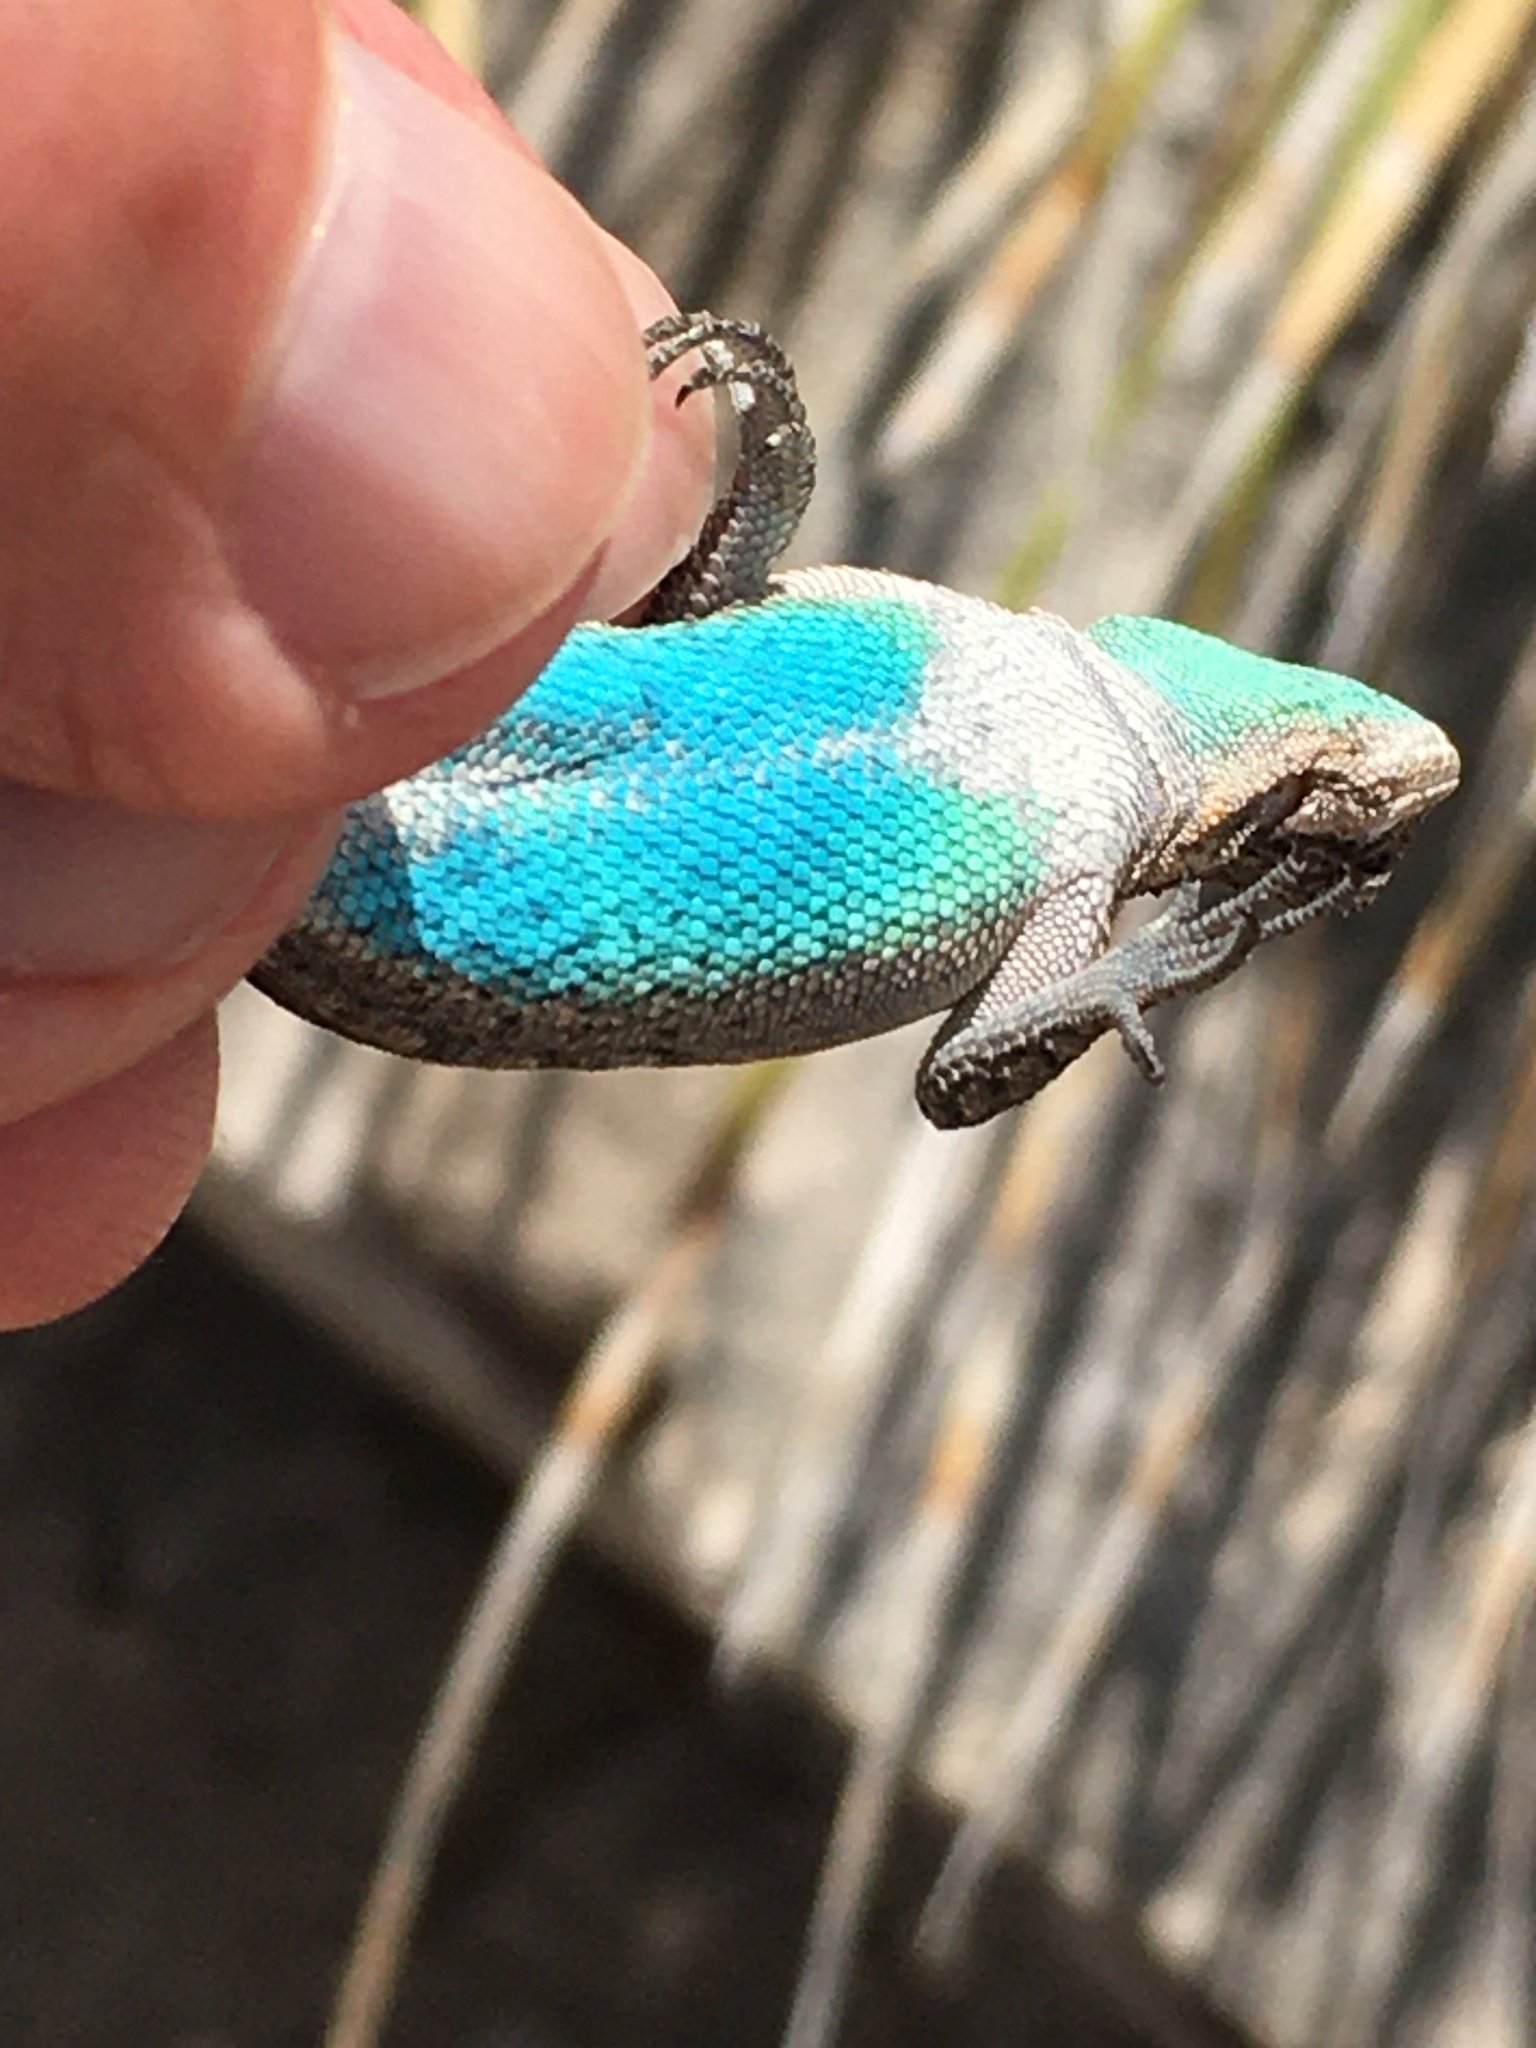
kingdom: Animalia
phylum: Chordata
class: Squamata
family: Phrynosomatidae
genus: Urosaurus
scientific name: Urosaurus ornatus
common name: Ornate tree lizard
